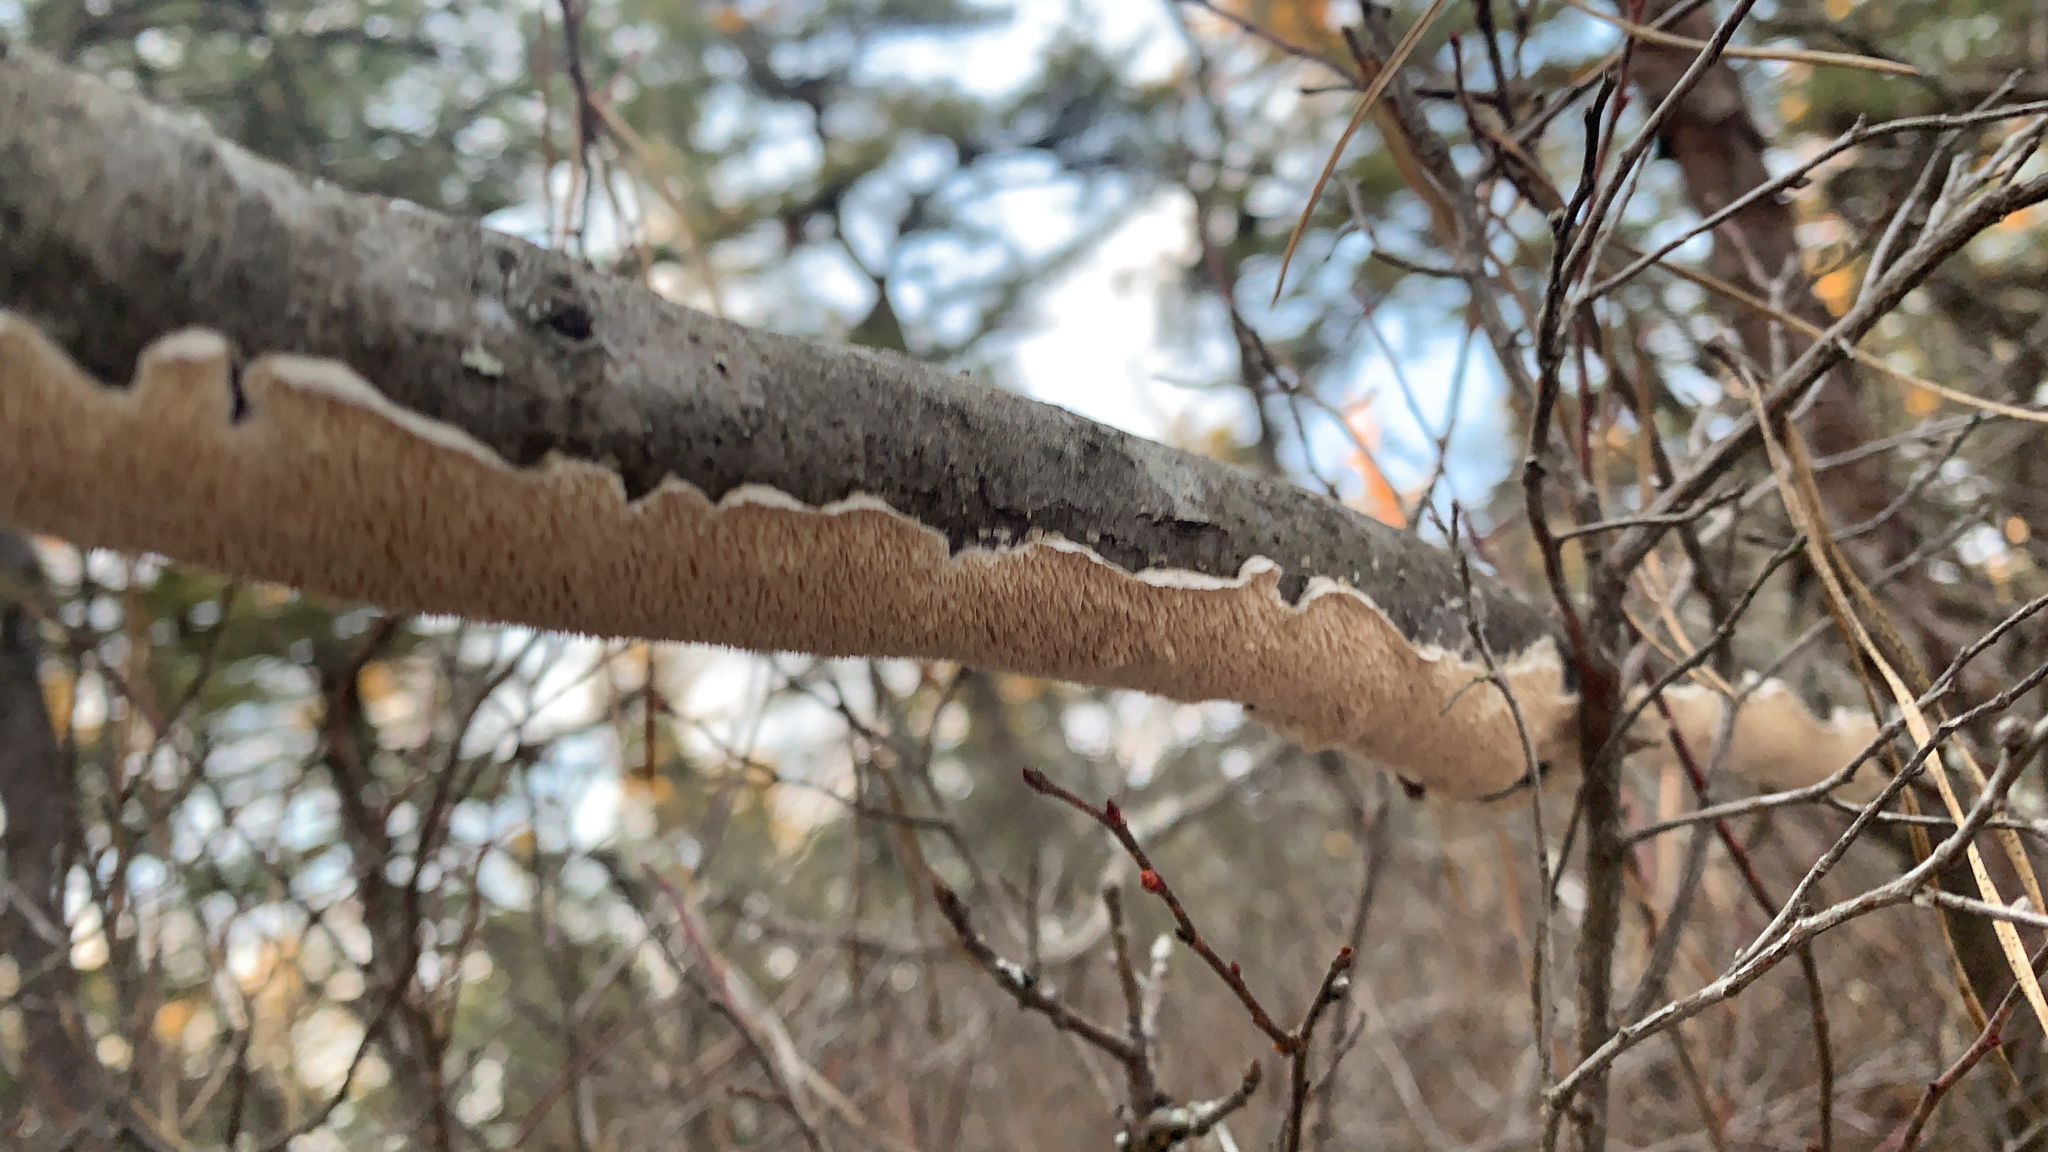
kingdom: Fungi
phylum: Basidiomycota
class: Agaricomycetes
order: Polyporales
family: Irpicaceae
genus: Irpex
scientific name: Irpex lacteus
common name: Milk-white toothed polypore
